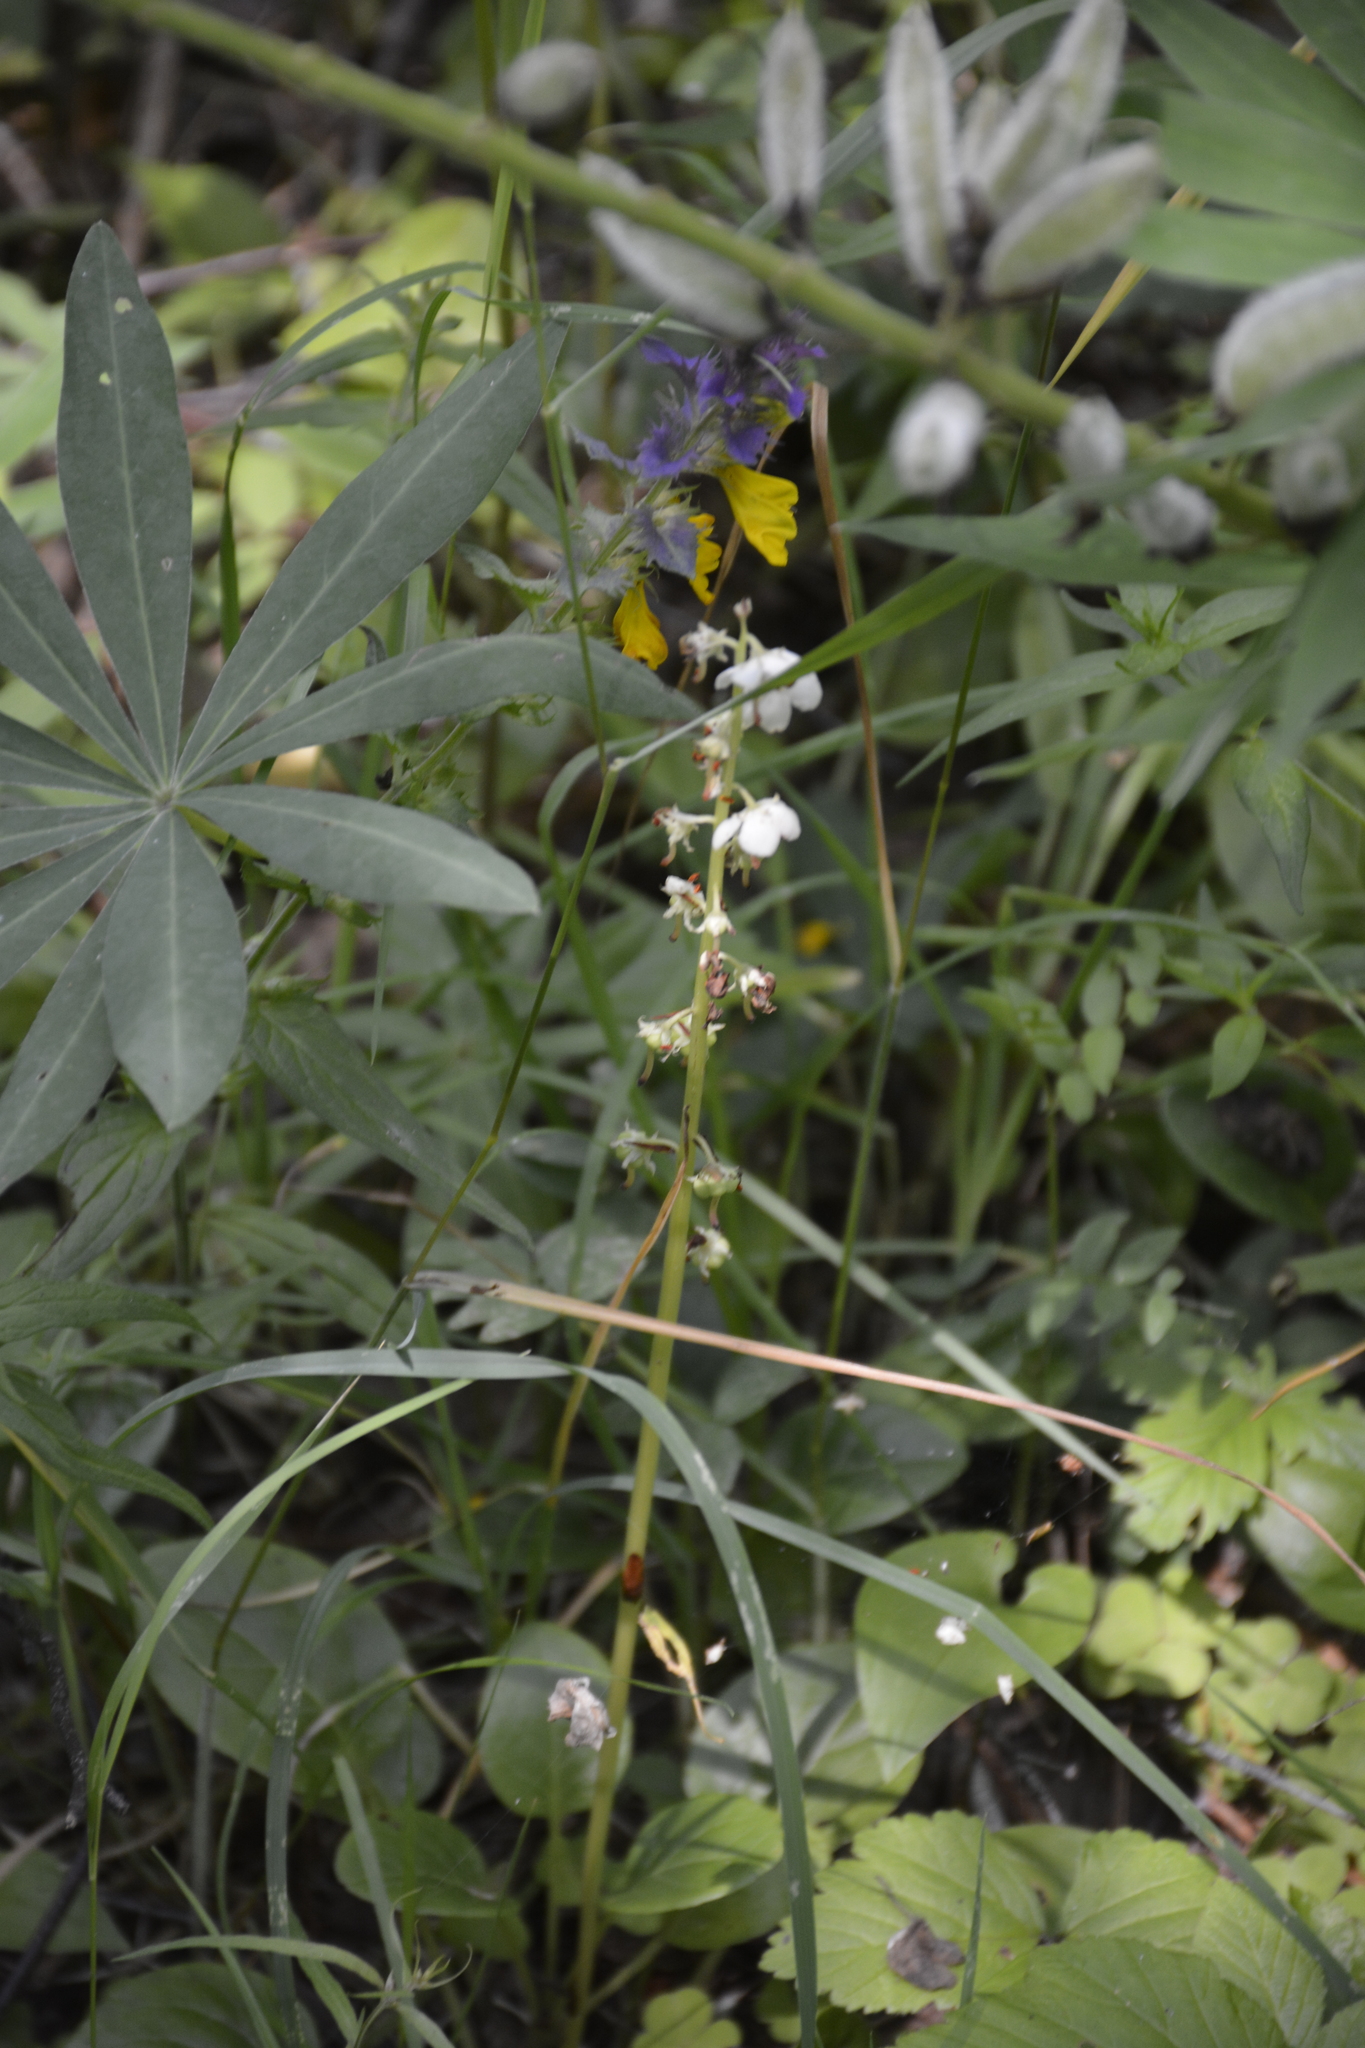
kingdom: Plantae
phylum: Tracheophyta
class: Magnoliopsida
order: Ericales
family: Ericaceae
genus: Pyrola
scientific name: Pyrola rotundifolia
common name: Round-leaved wintergreen
